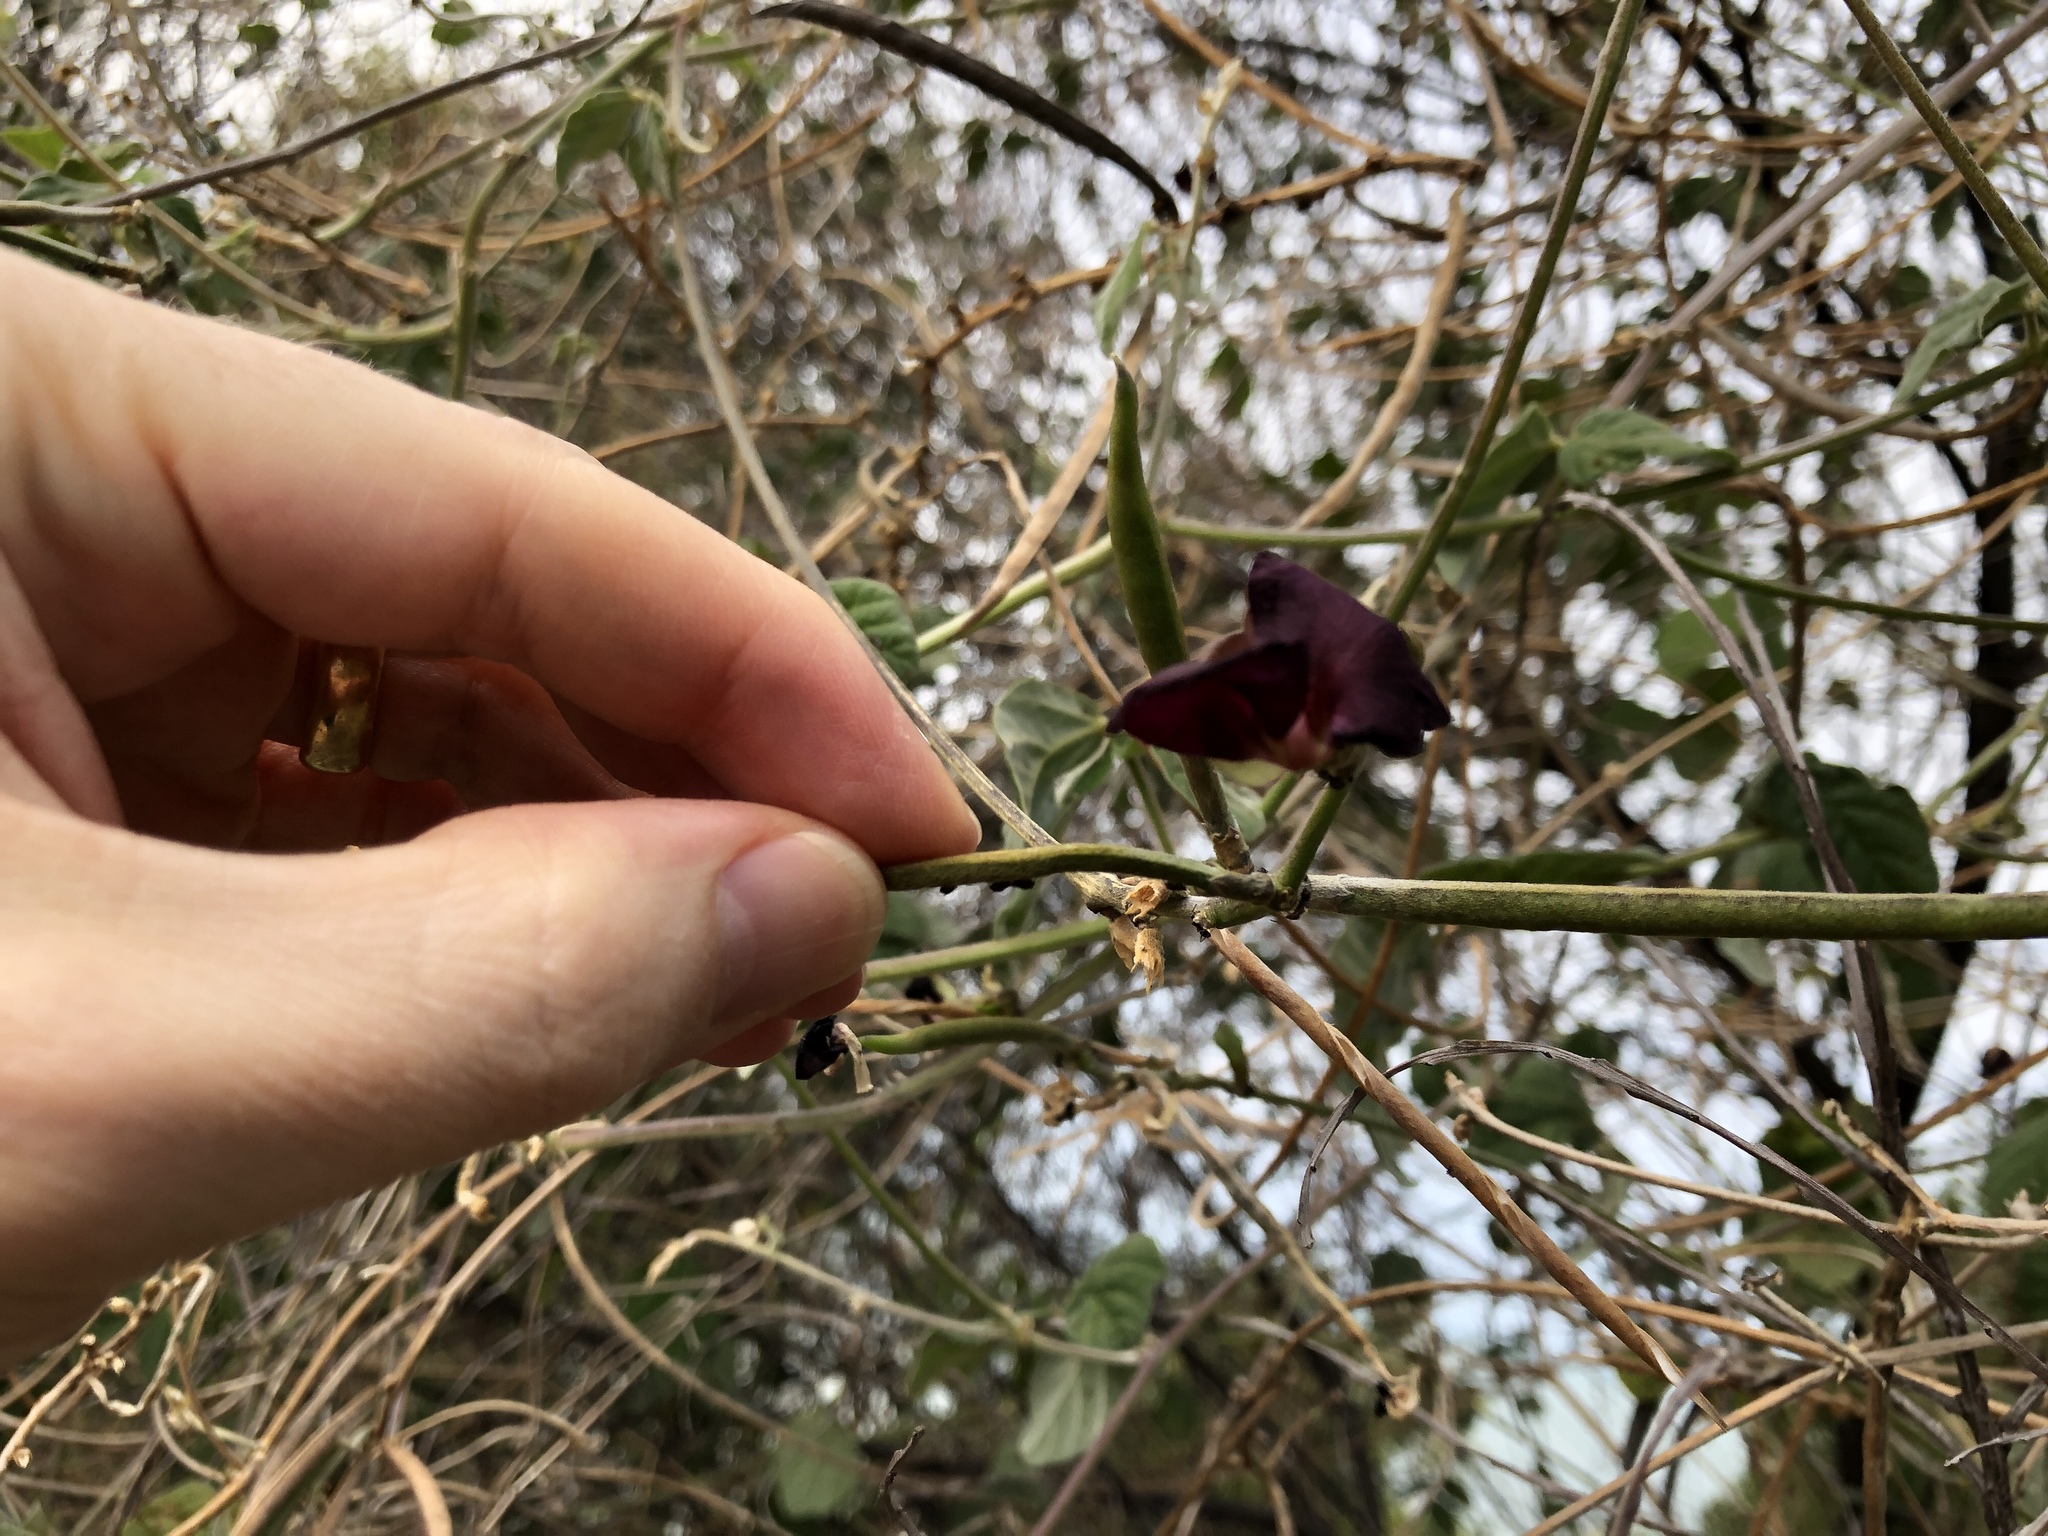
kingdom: Plantae
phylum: Tracheophyta
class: Magnoliopsida
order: Fabales
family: Fabaceae
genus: Macroptilium
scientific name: Macroptilium atropurpureum
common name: Purple bushbean
